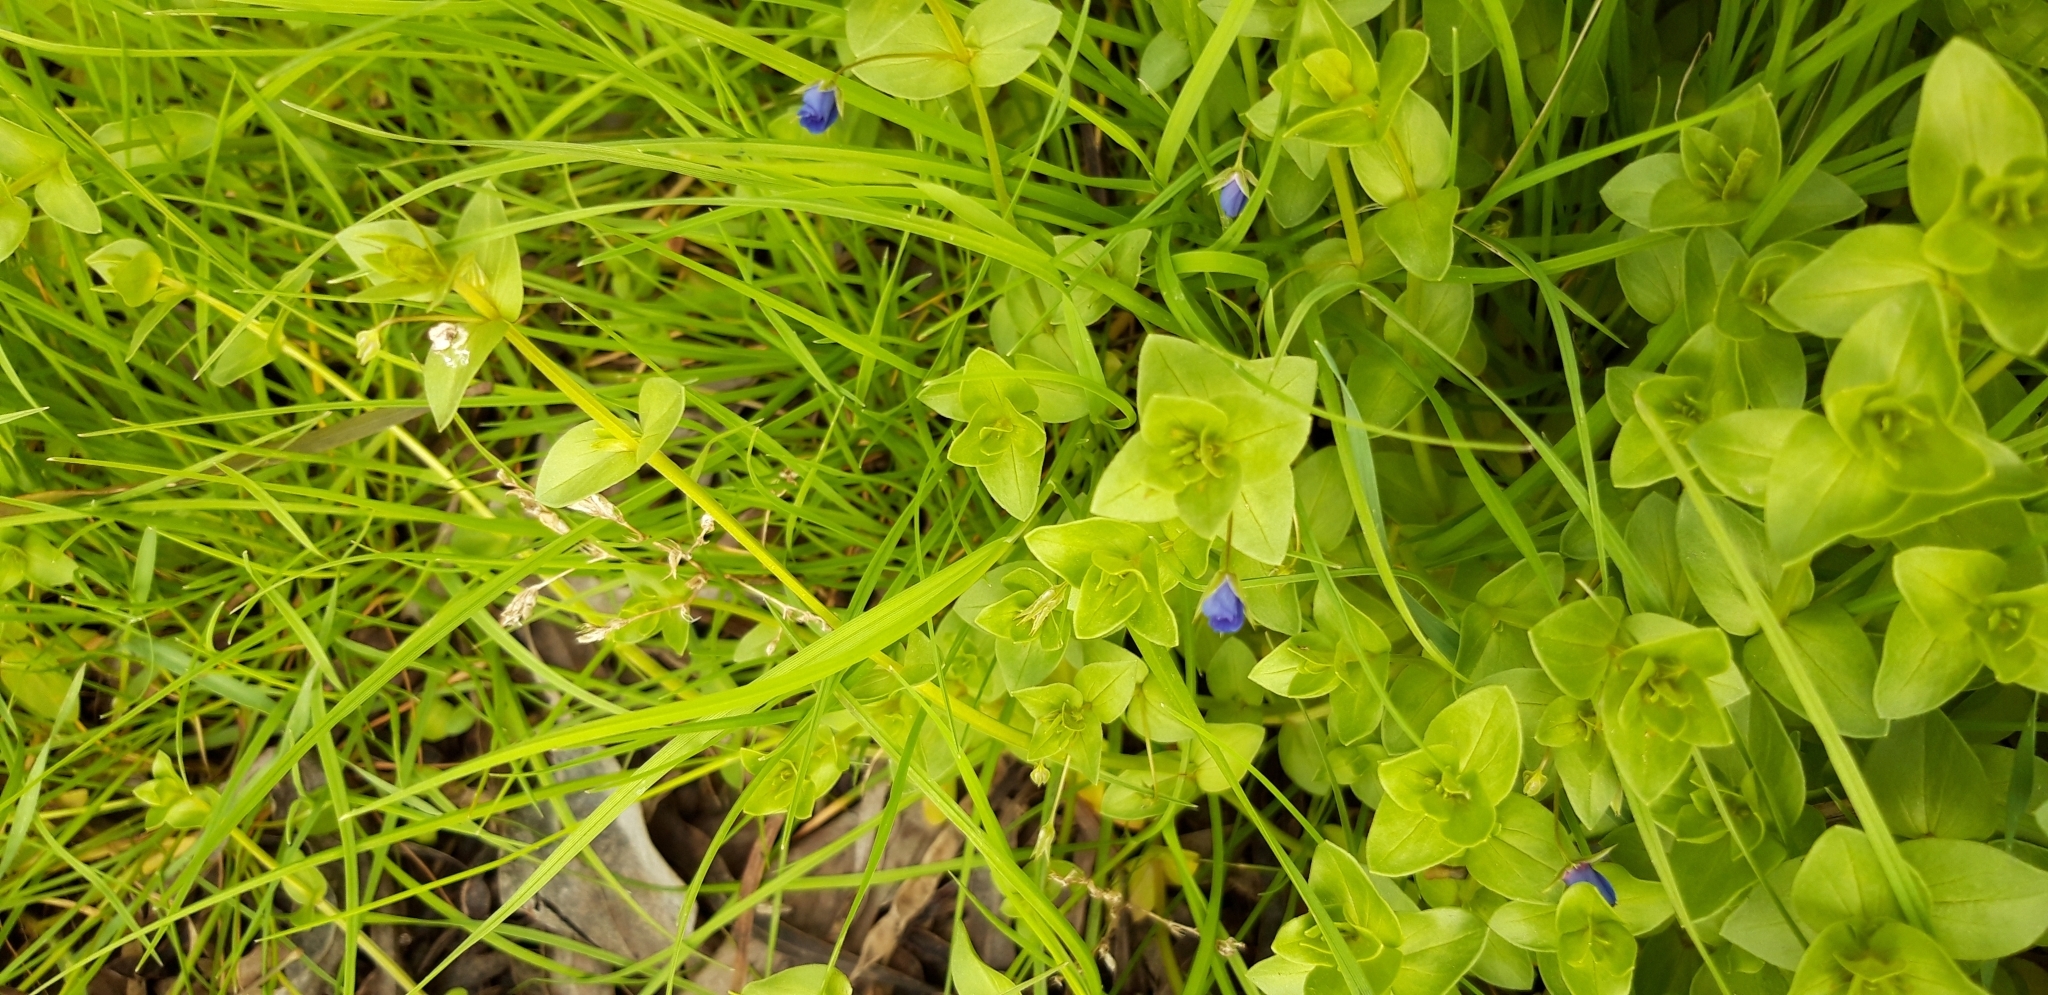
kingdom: Plantae
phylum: Tracheophyta
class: Magnoliopsida
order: Ericales
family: Primulaceae
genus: Lysimachia
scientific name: Lysimachia arvensis
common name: Scarlet pimpernel
